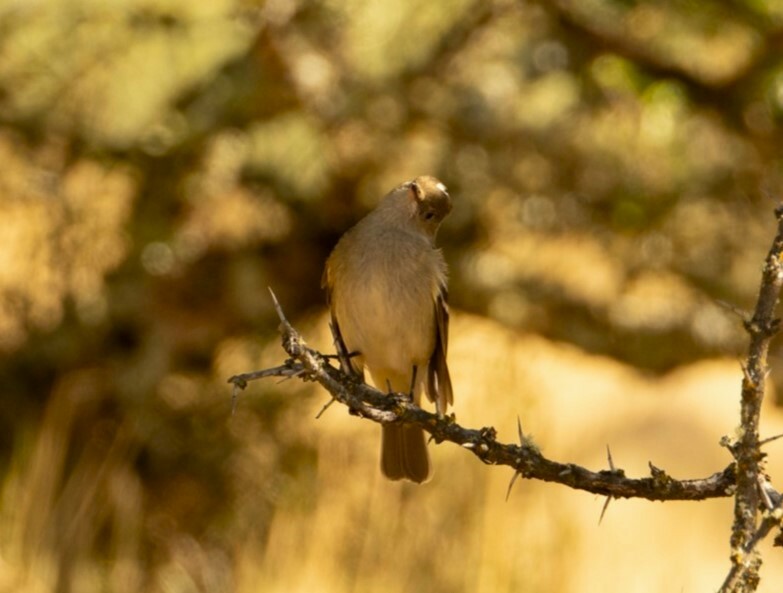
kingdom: Animalia
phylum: Chordata
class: Aves
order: Passeriformes
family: Tyrannidae
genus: Elaenia
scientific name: Elaenia albiceps
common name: White-crested elaenia
